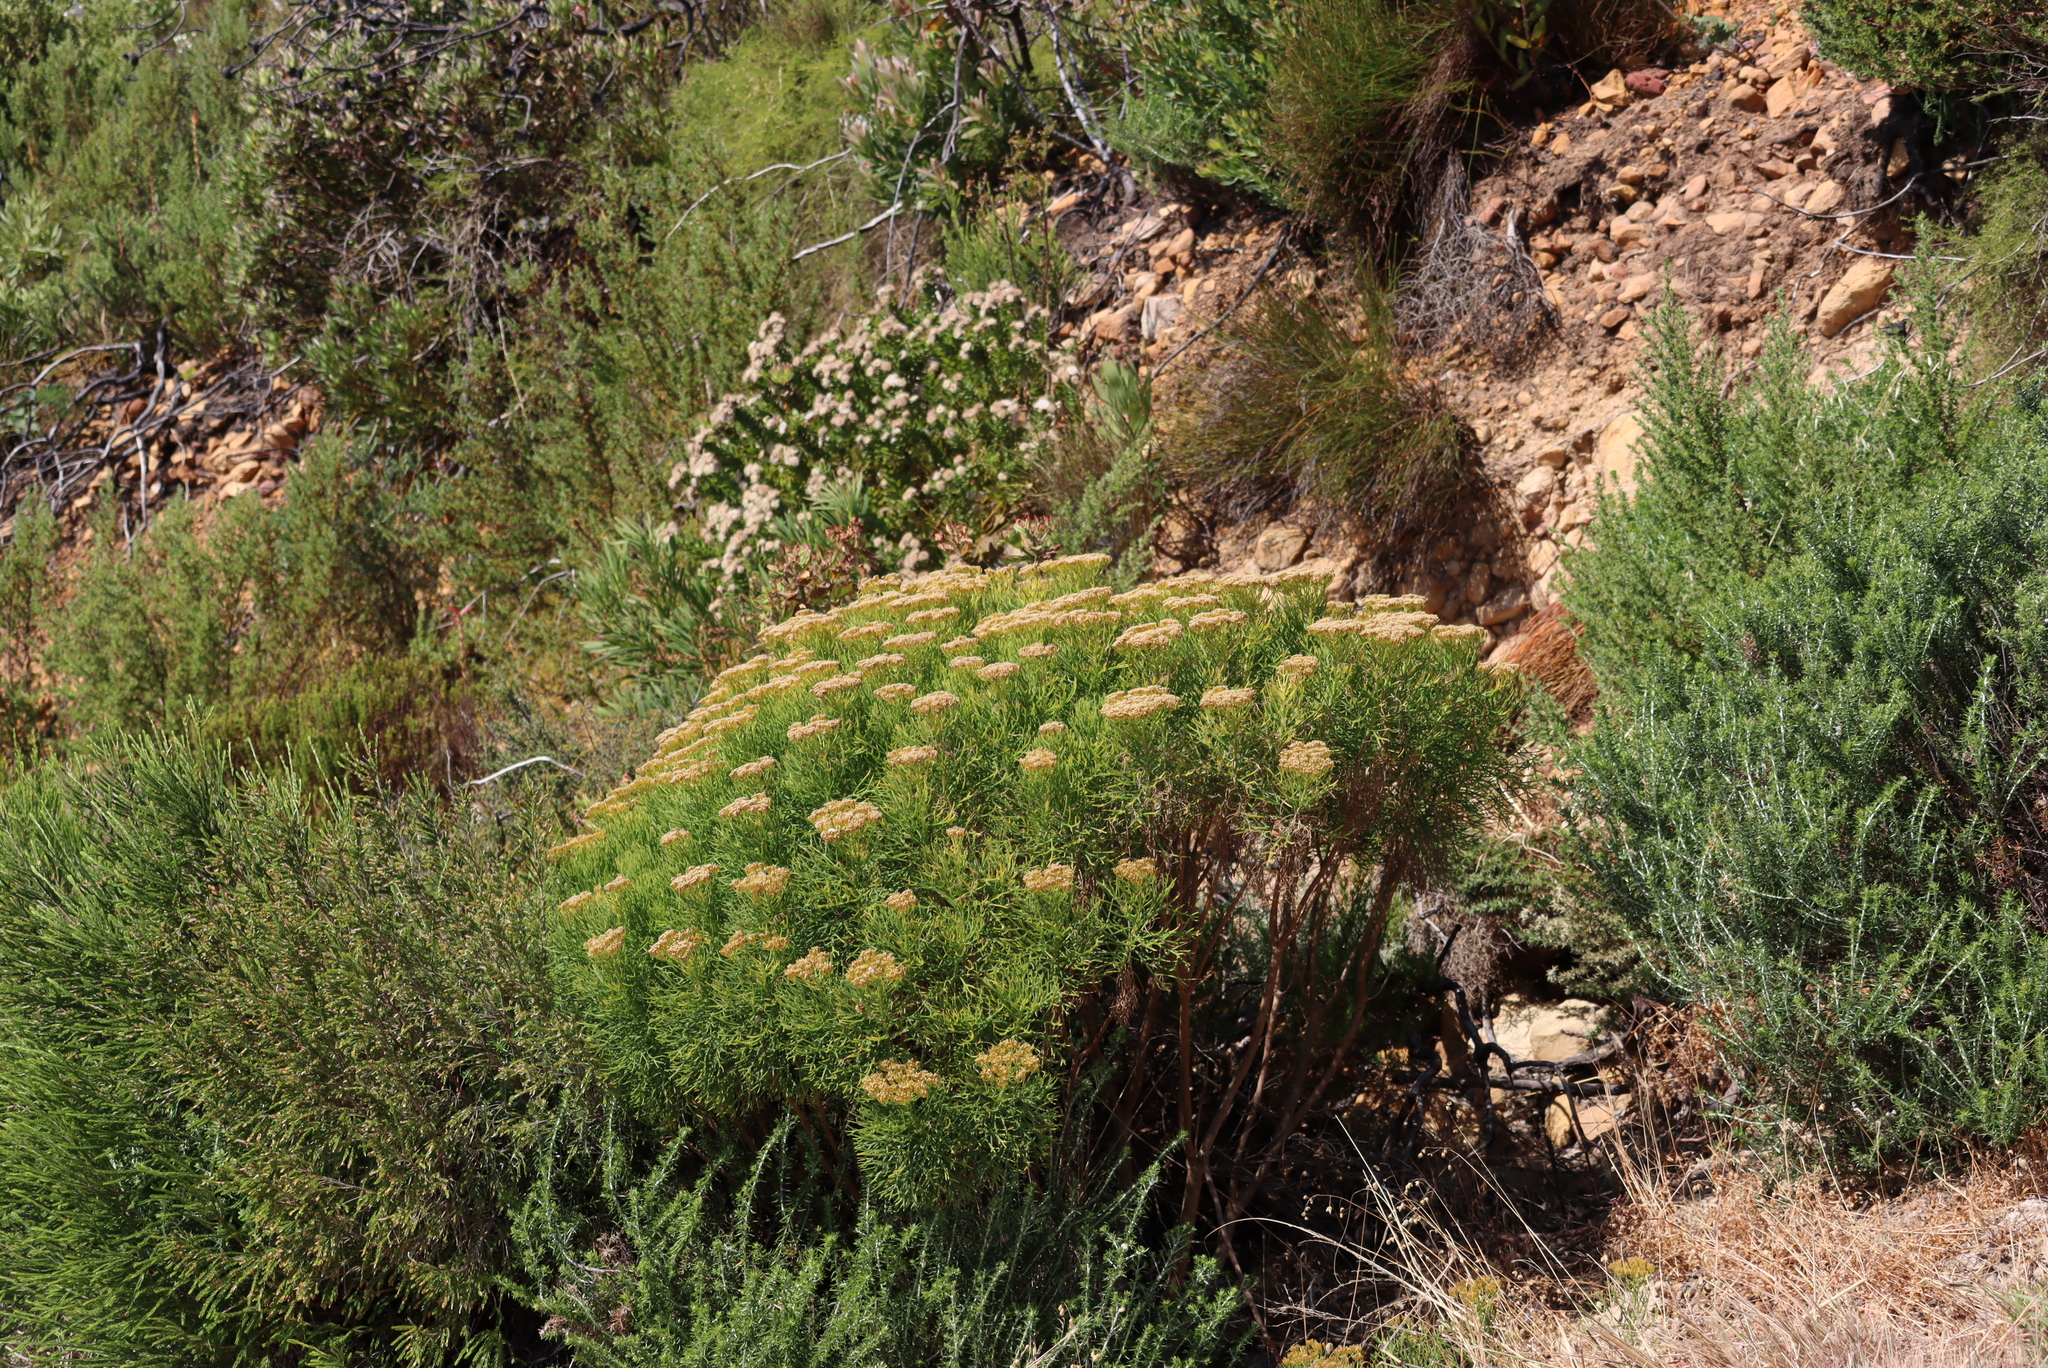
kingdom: Plantae
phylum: Tracheophyta
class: Magnoliopsida
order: Asterales
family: Asteraceae
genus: Hymenolepis
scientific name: Hymenolepis crithmifolia
